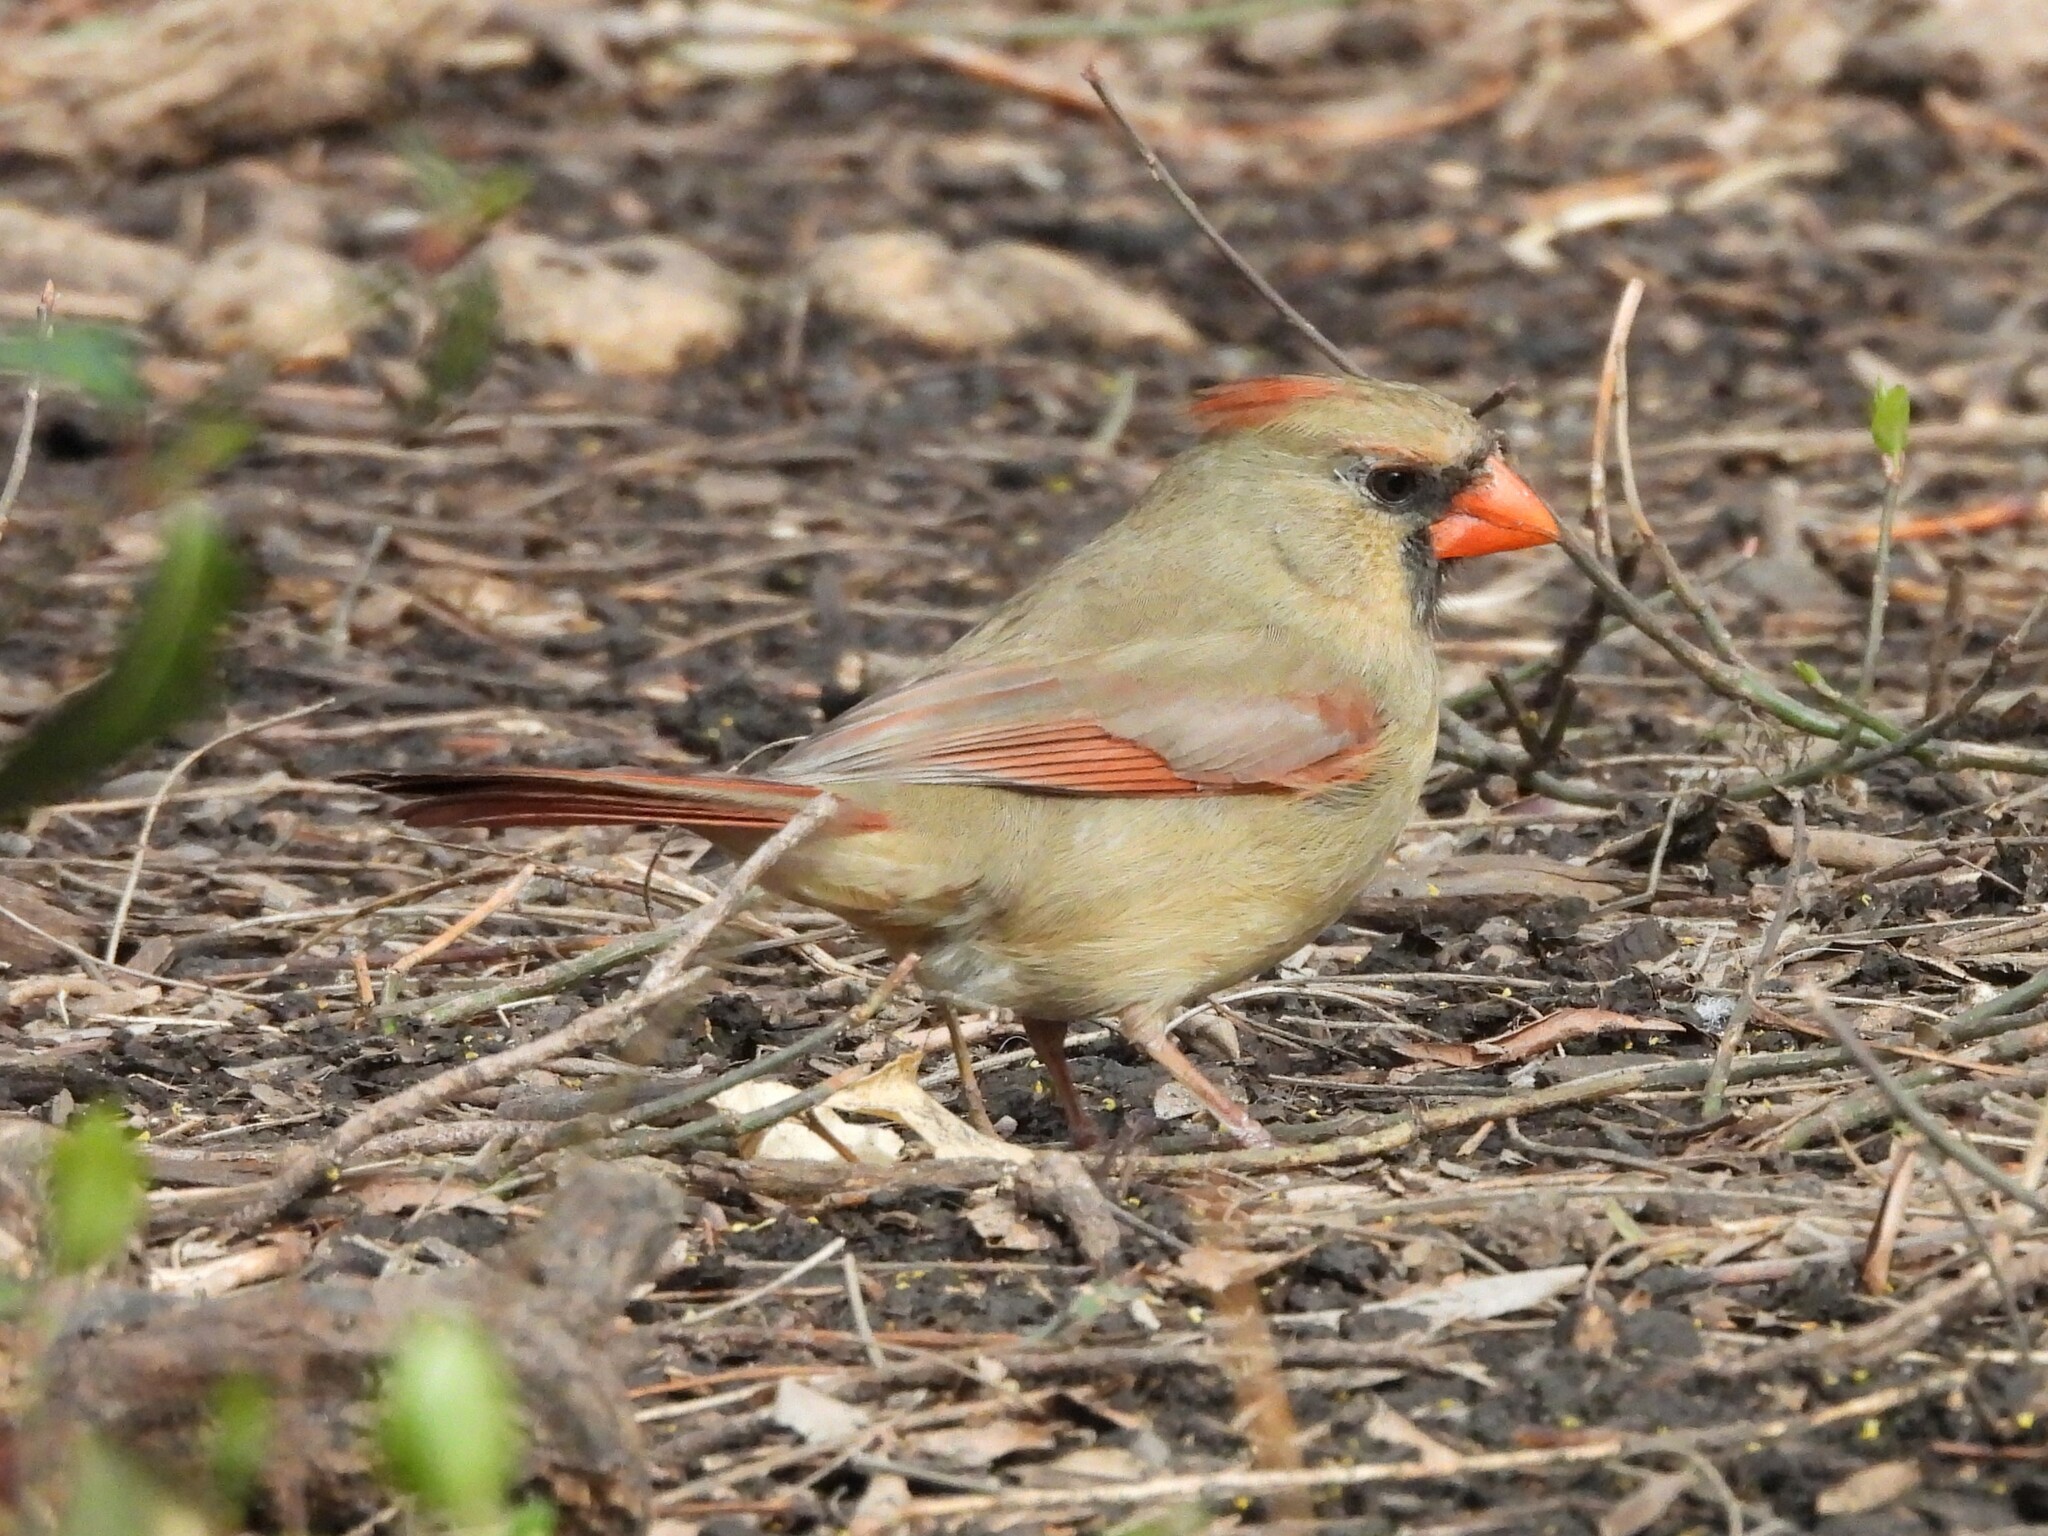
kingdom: Animalia
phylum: Chordata
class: Aves
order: Passeriformes
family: Cardinalidae
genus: Cardinalis
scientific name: Cardinalis cardinalis
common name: Northern cardinal
